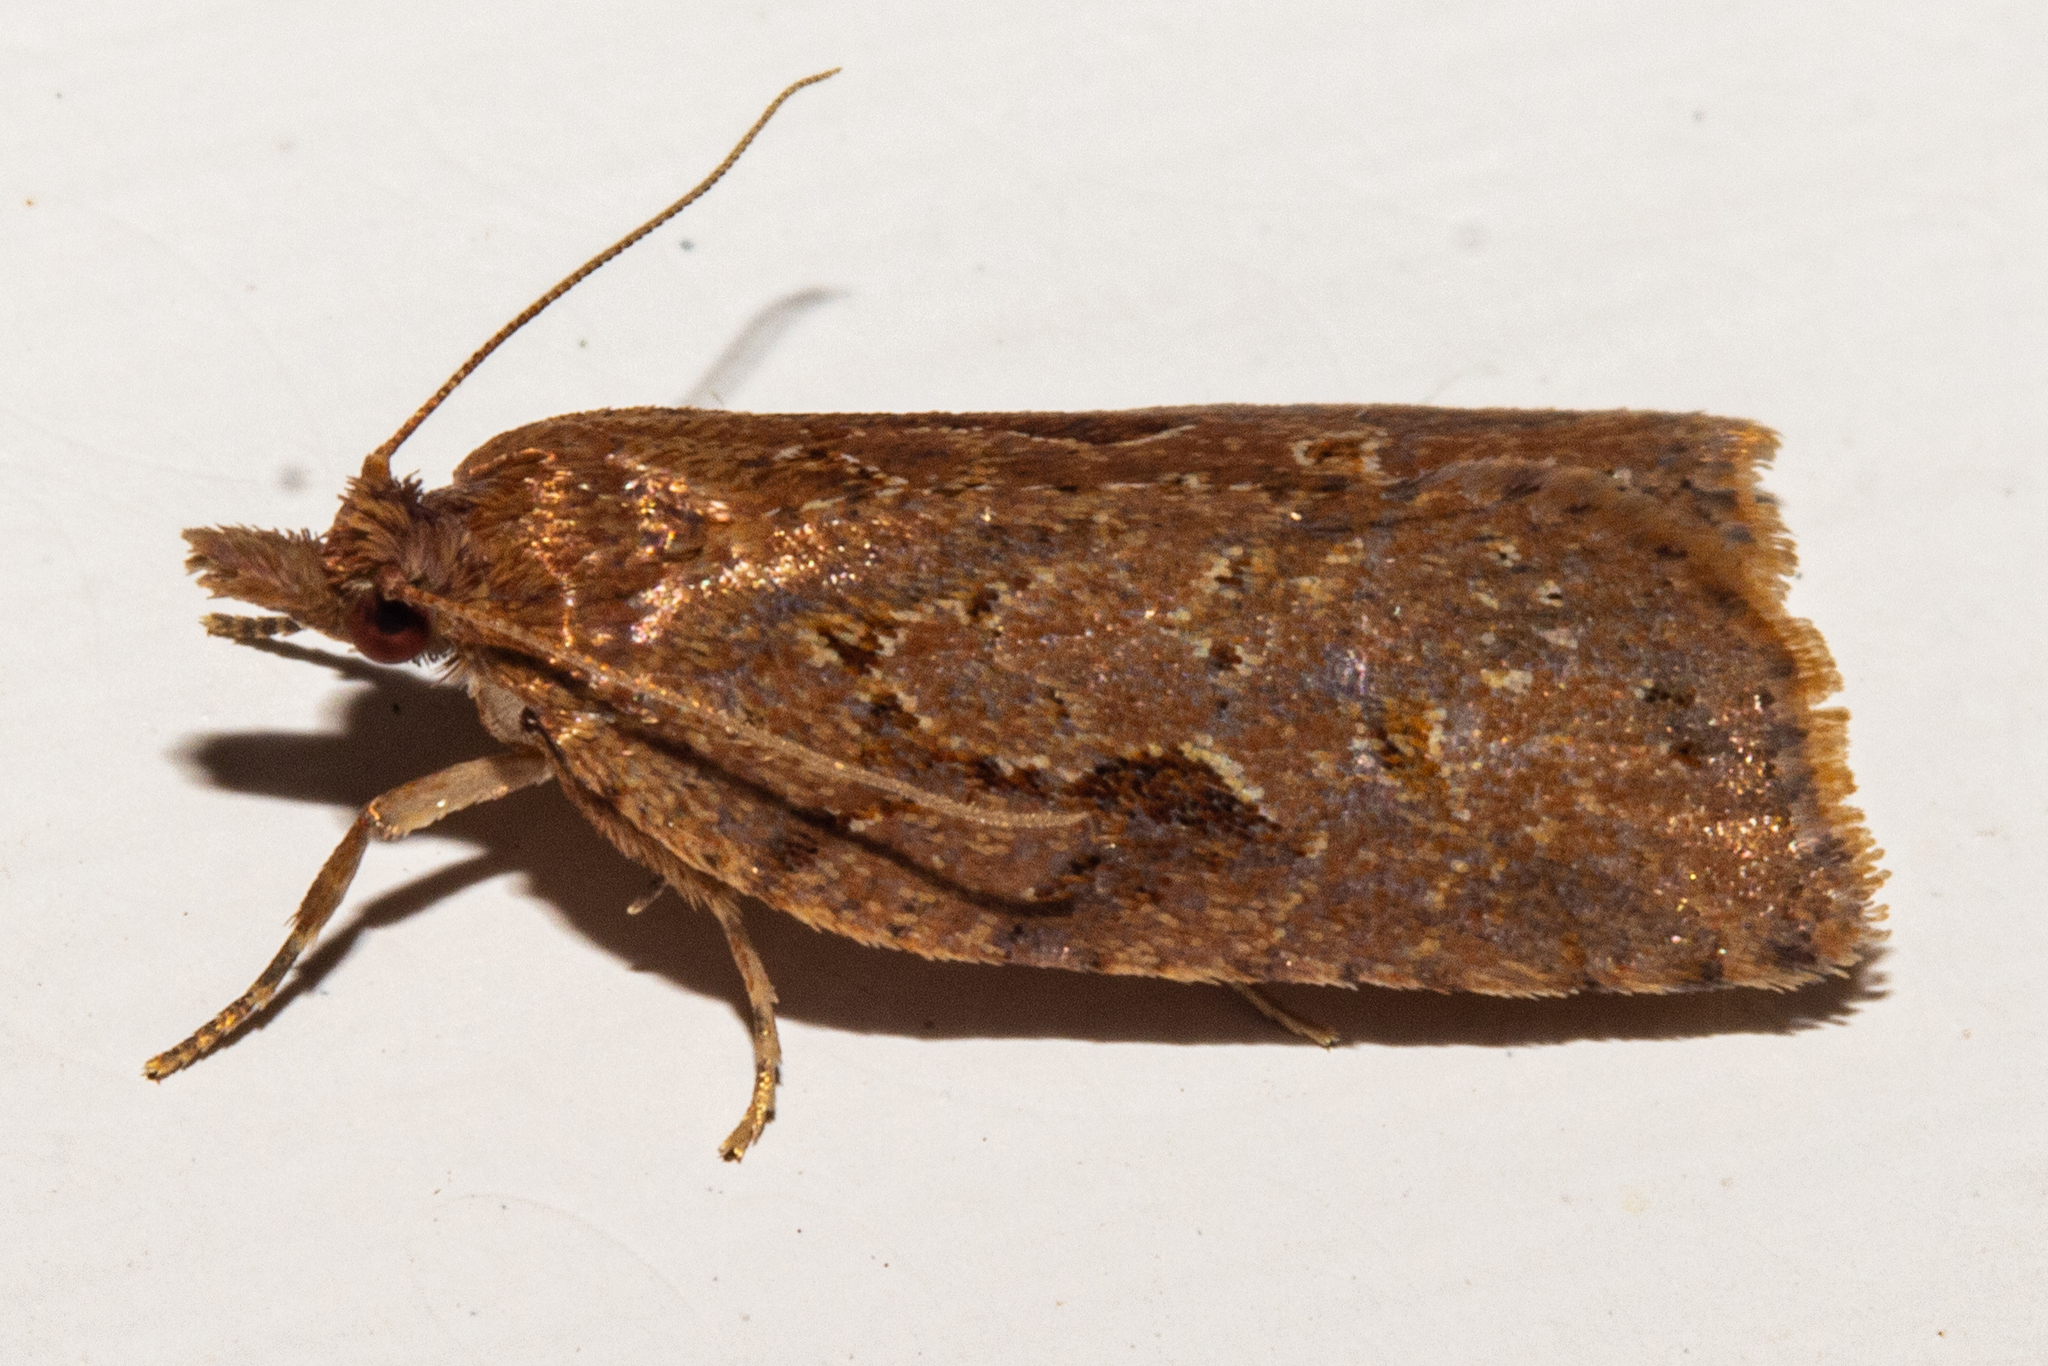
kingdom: Animalia
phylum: Arthropoda
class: Insecta
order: Lepidoptera
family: Tortricidae
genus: Ctenopseustis
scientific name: Ctenopseustis fraterna
